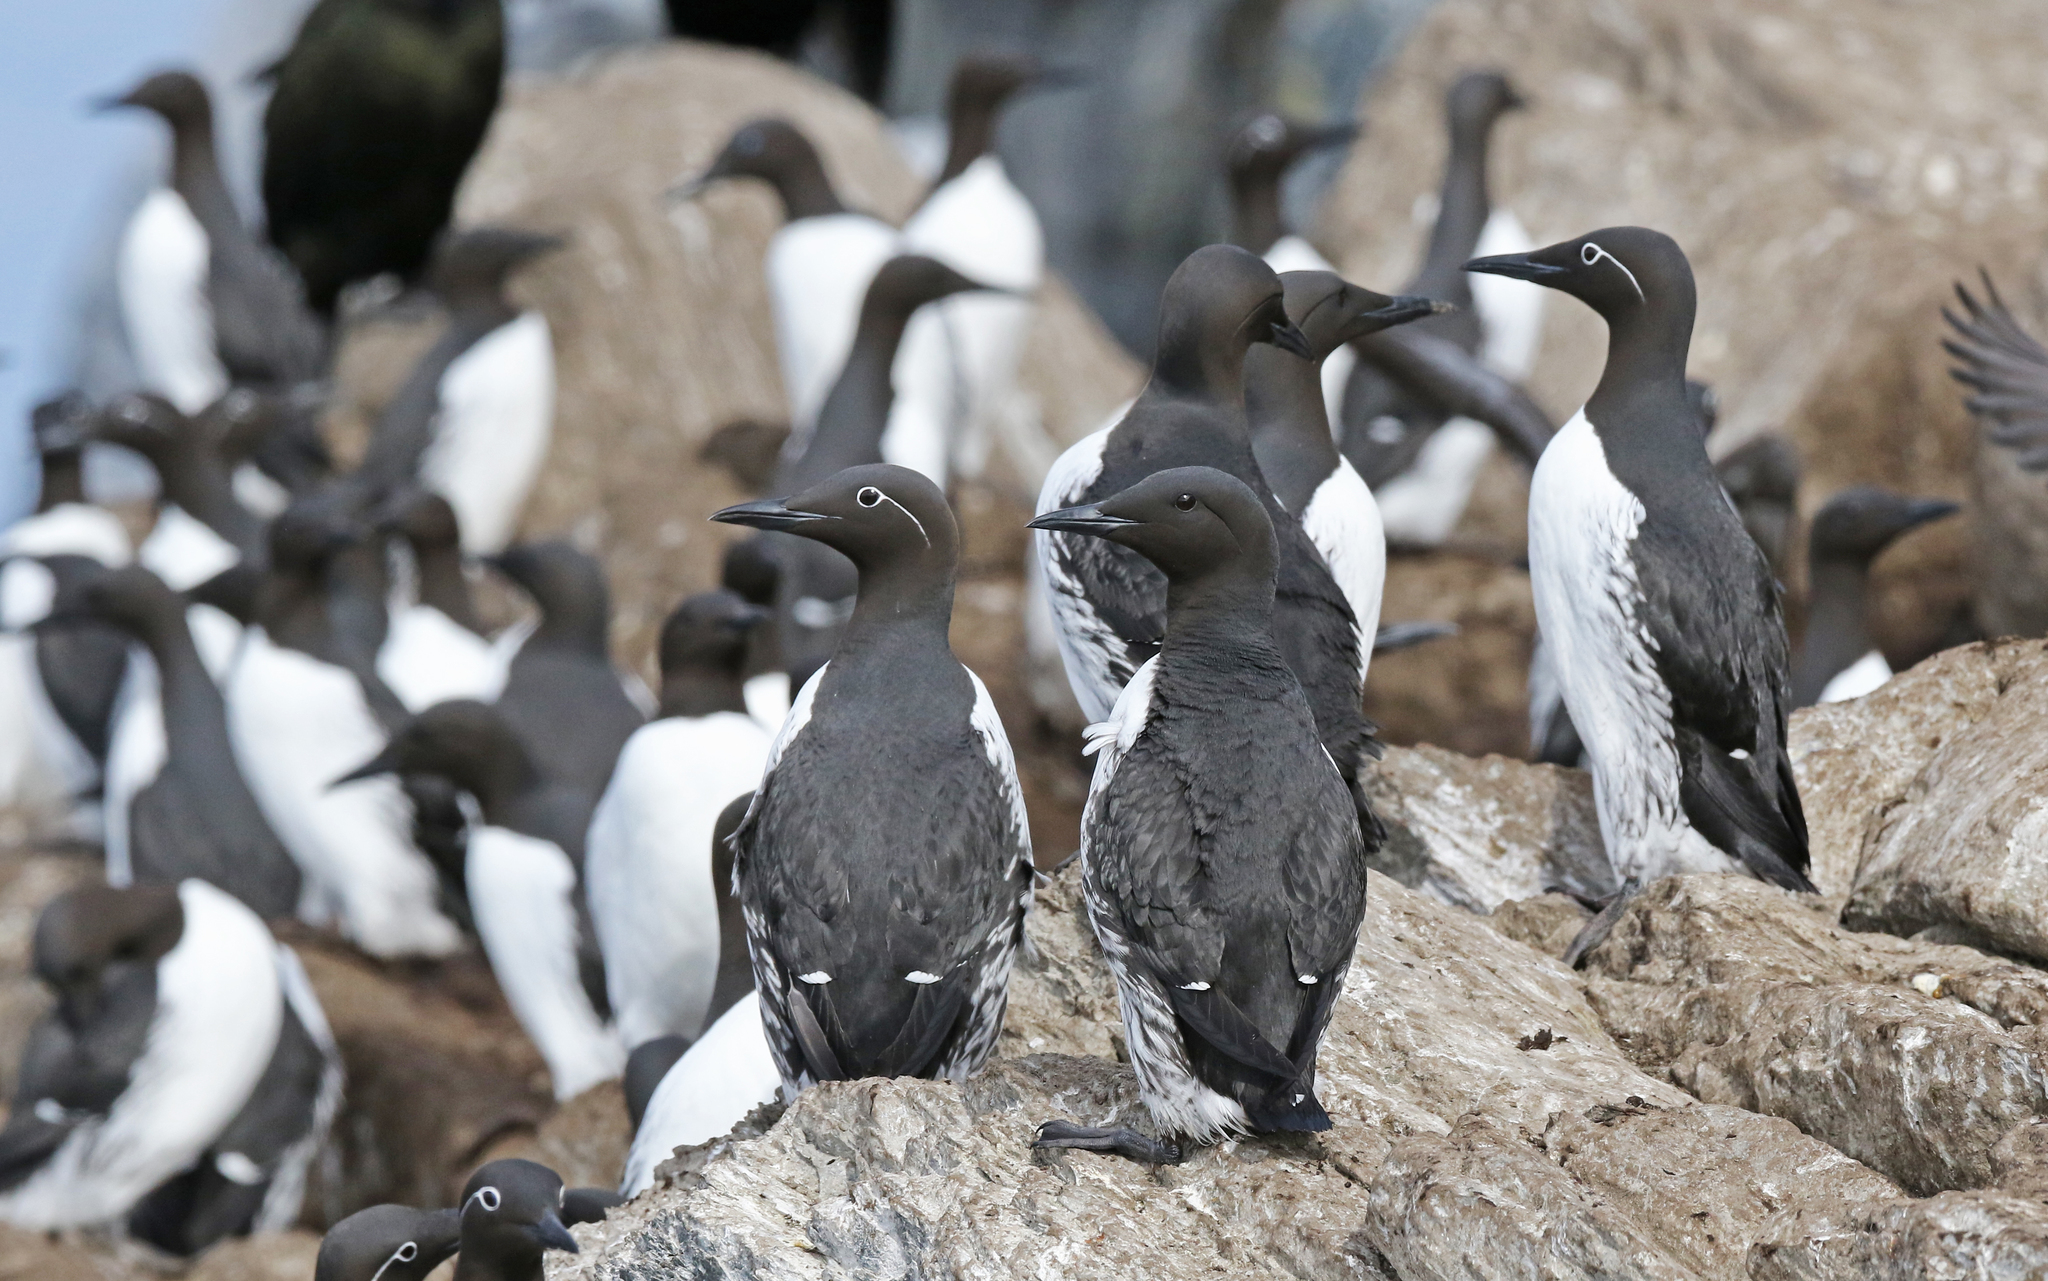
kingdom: Animalia
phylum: Chordata
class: Aves
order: Charadriiformes
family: Alcidae
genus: Uria
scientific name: Uria aalge
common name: Common murre
